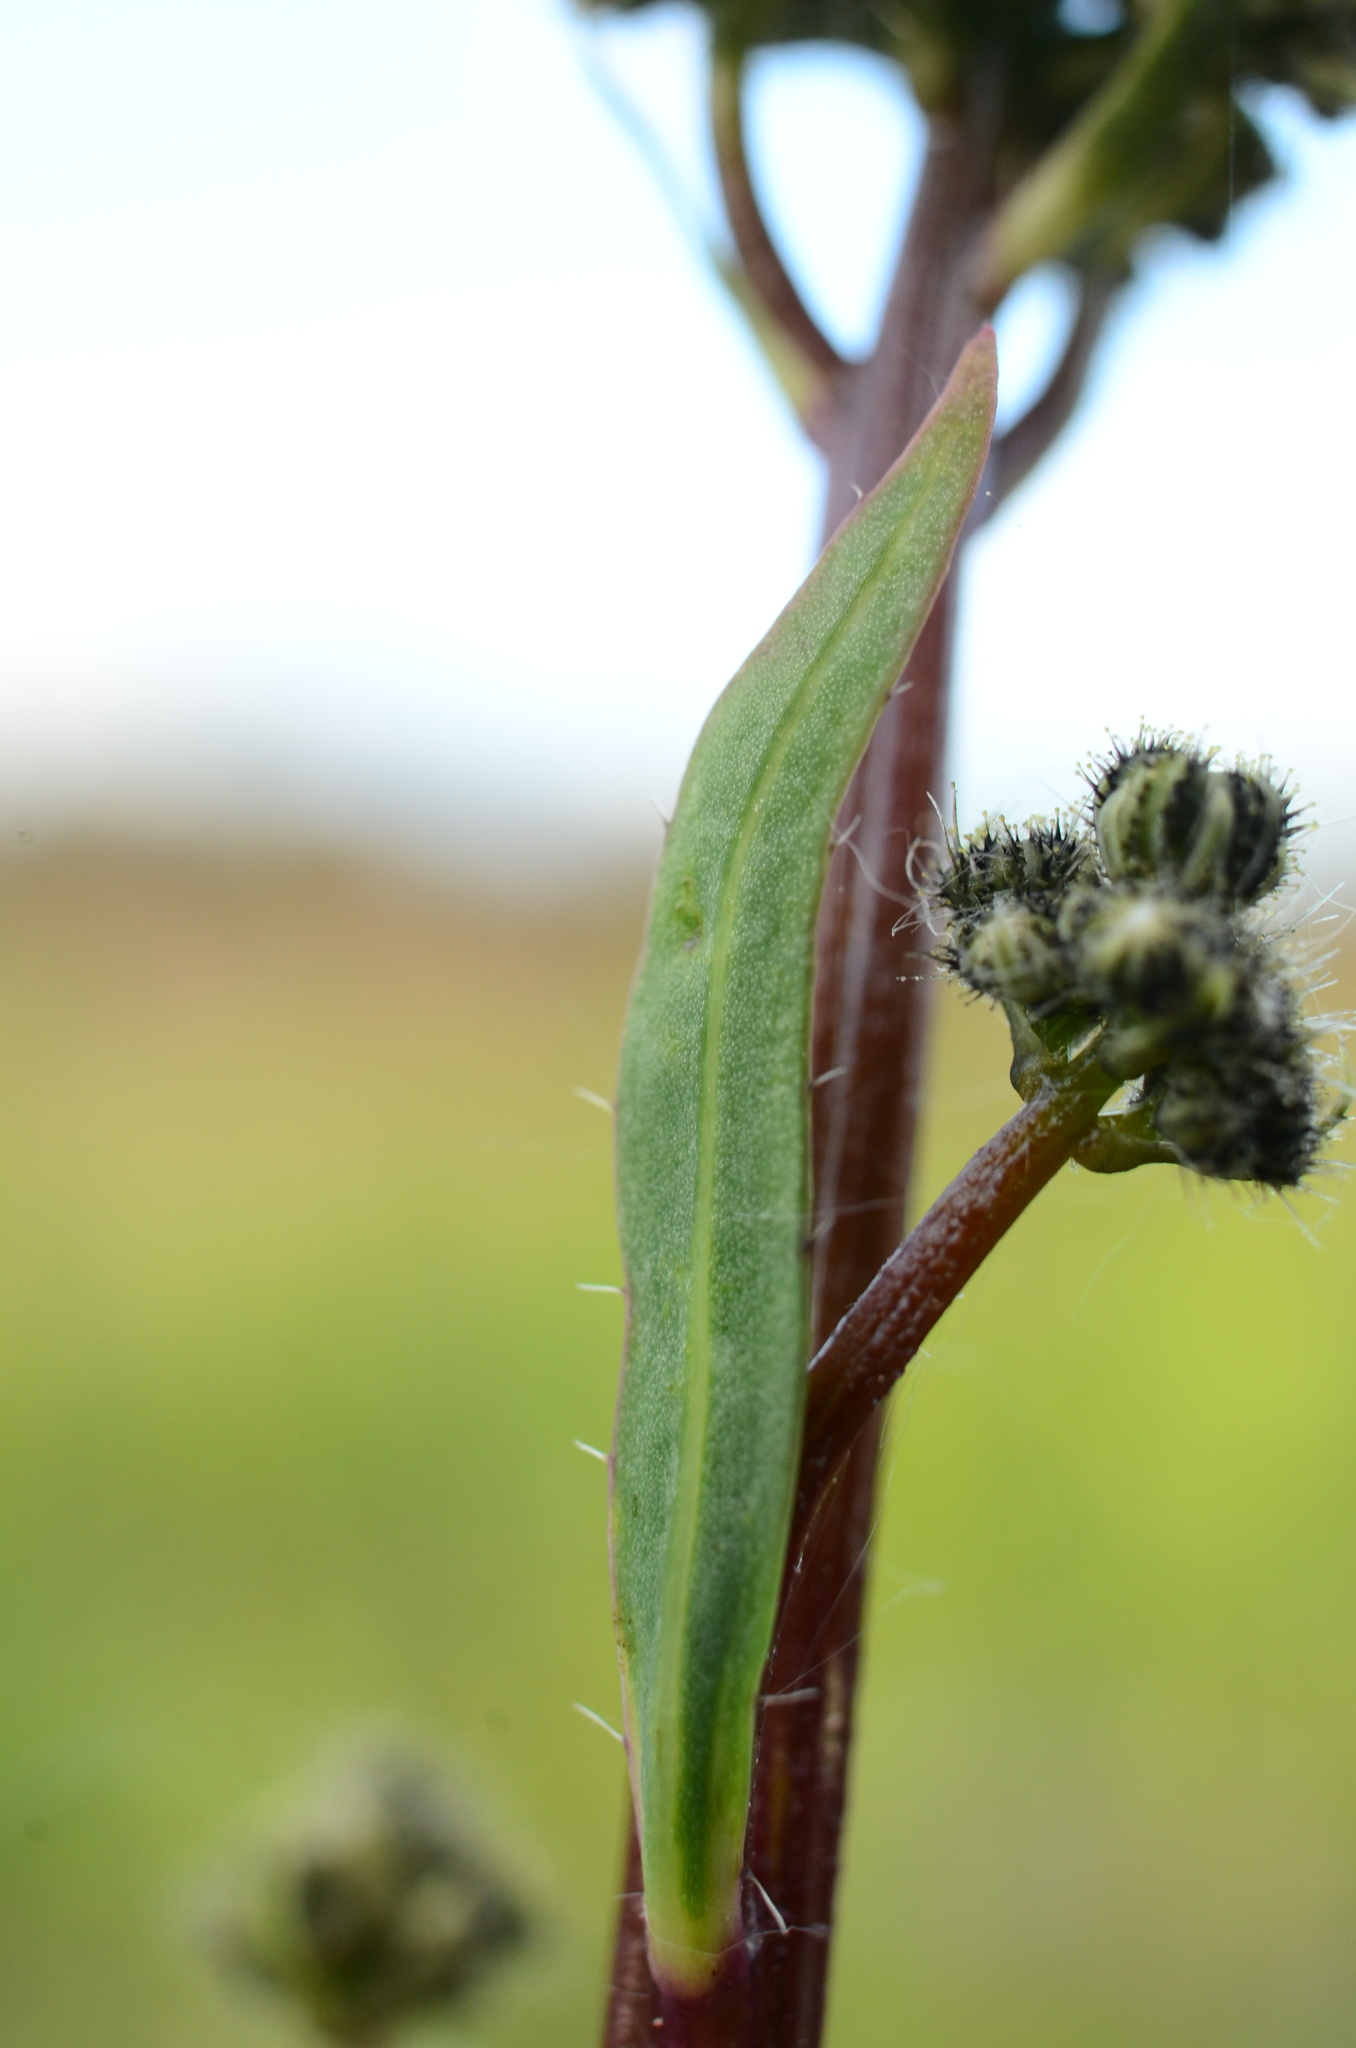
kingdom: Plantae
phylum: Tracheophyta
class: Magnoliopsida
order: Asterales
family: Asteraceae
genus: Pilosella
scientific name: Pilosella piloselloides
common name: Glaucous king-devil
